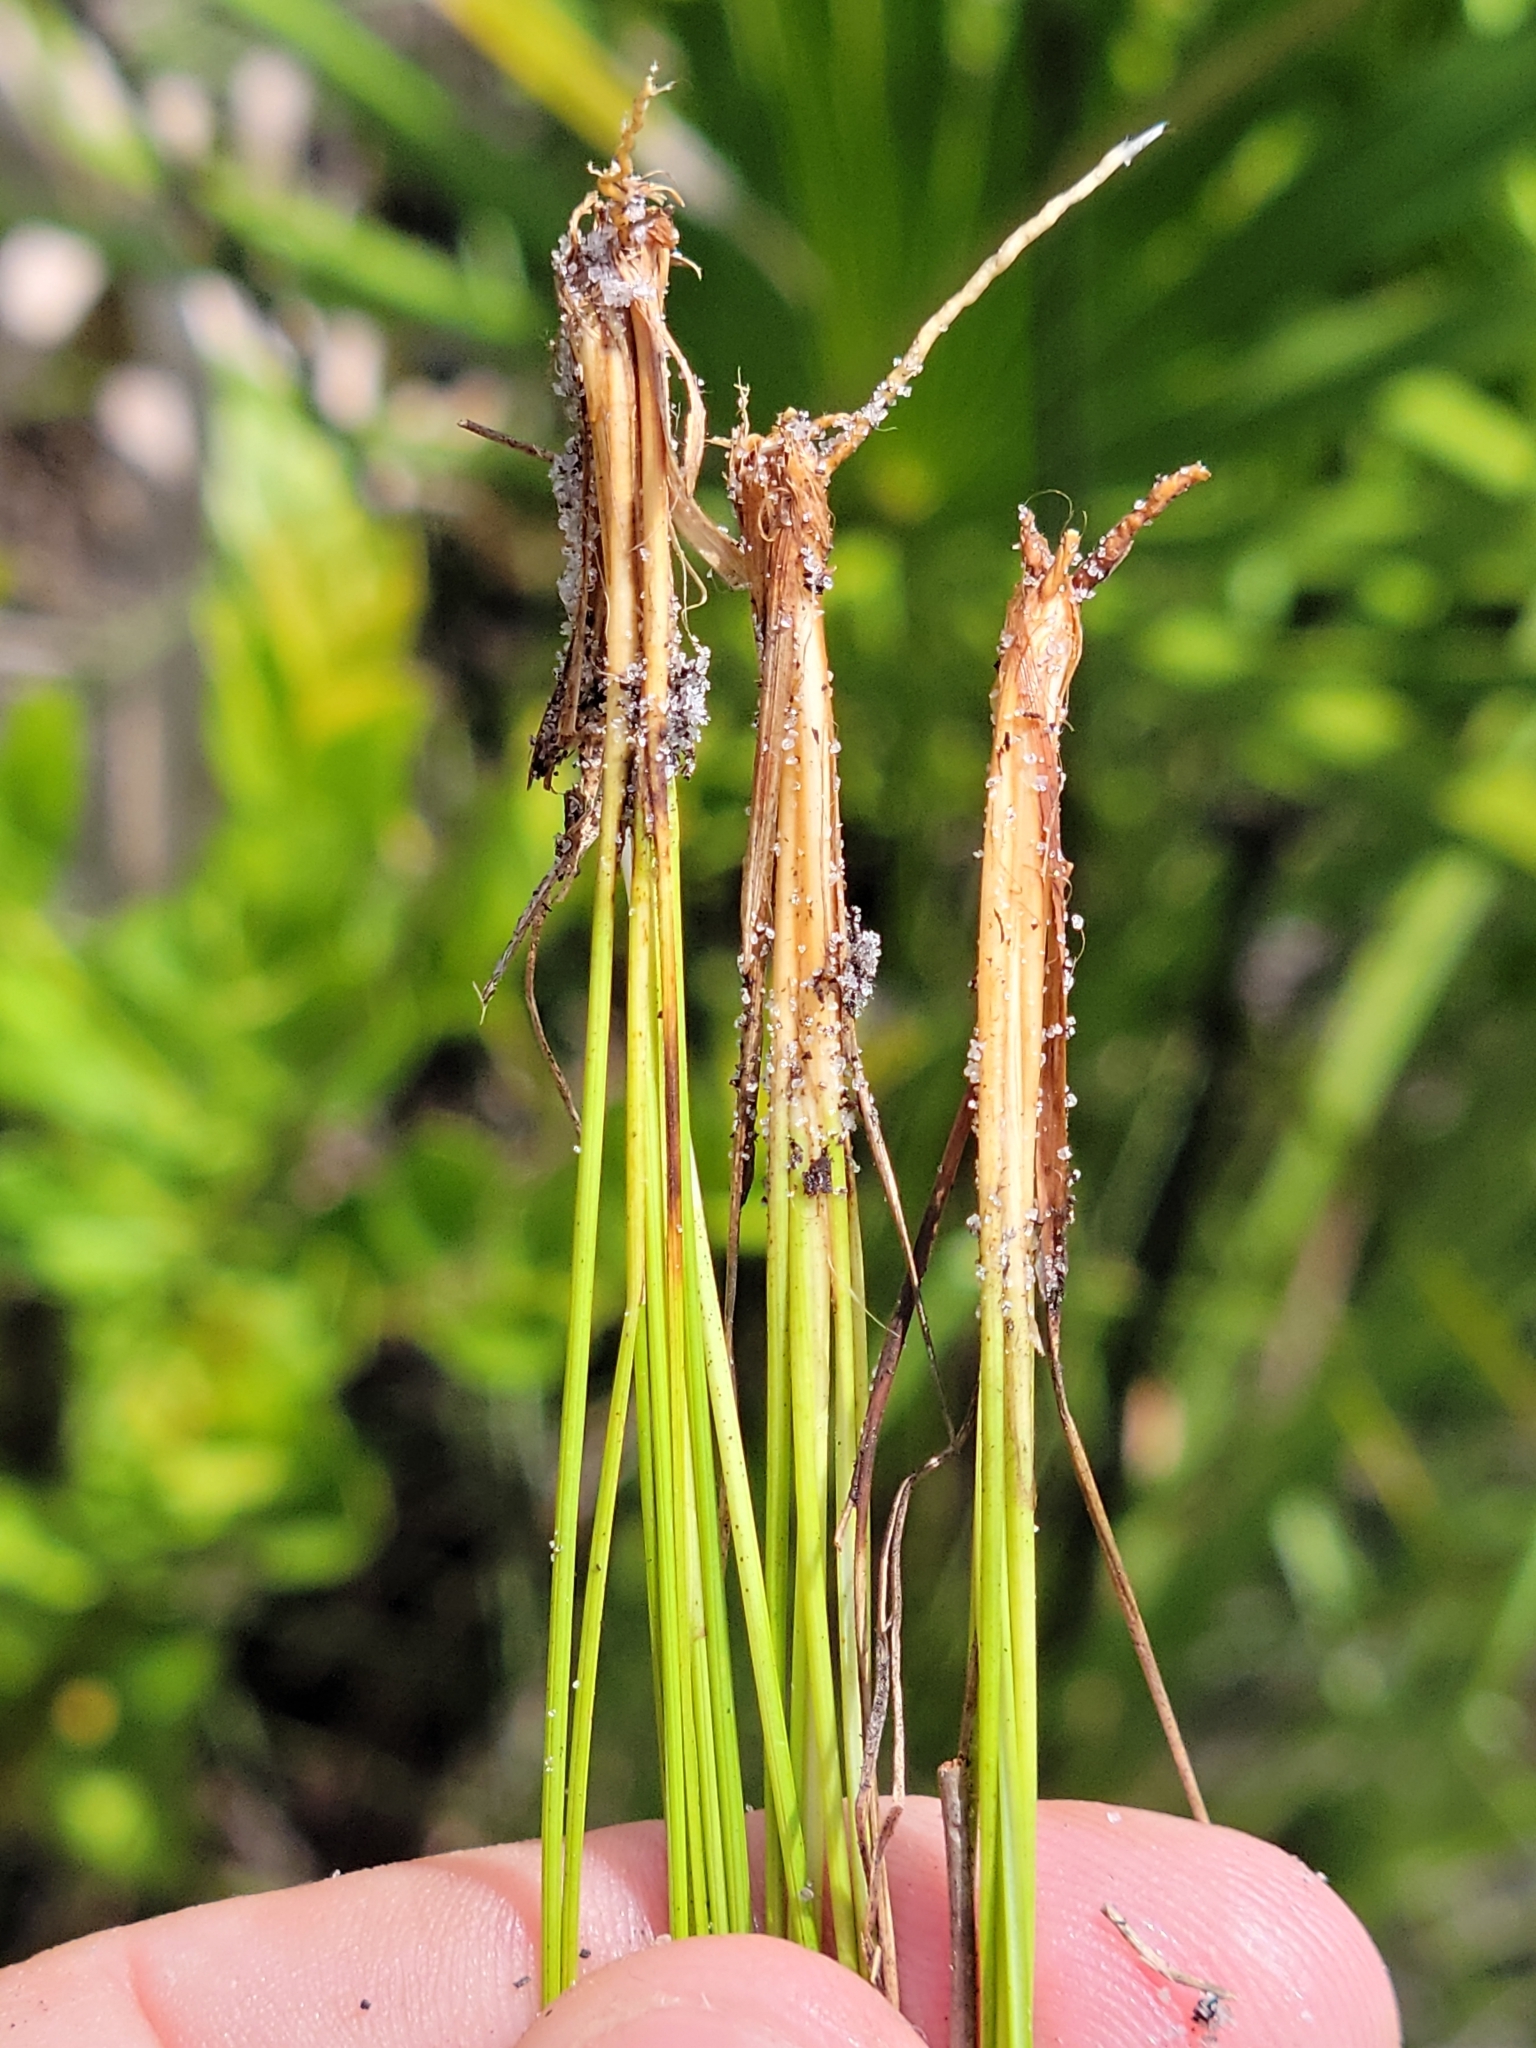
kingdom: Plantae
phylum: Tracheophyta
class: Liliopsida
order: Poales
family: Cyperaceae
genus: Rhynchospora
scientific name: Rhynchospora plumosa
